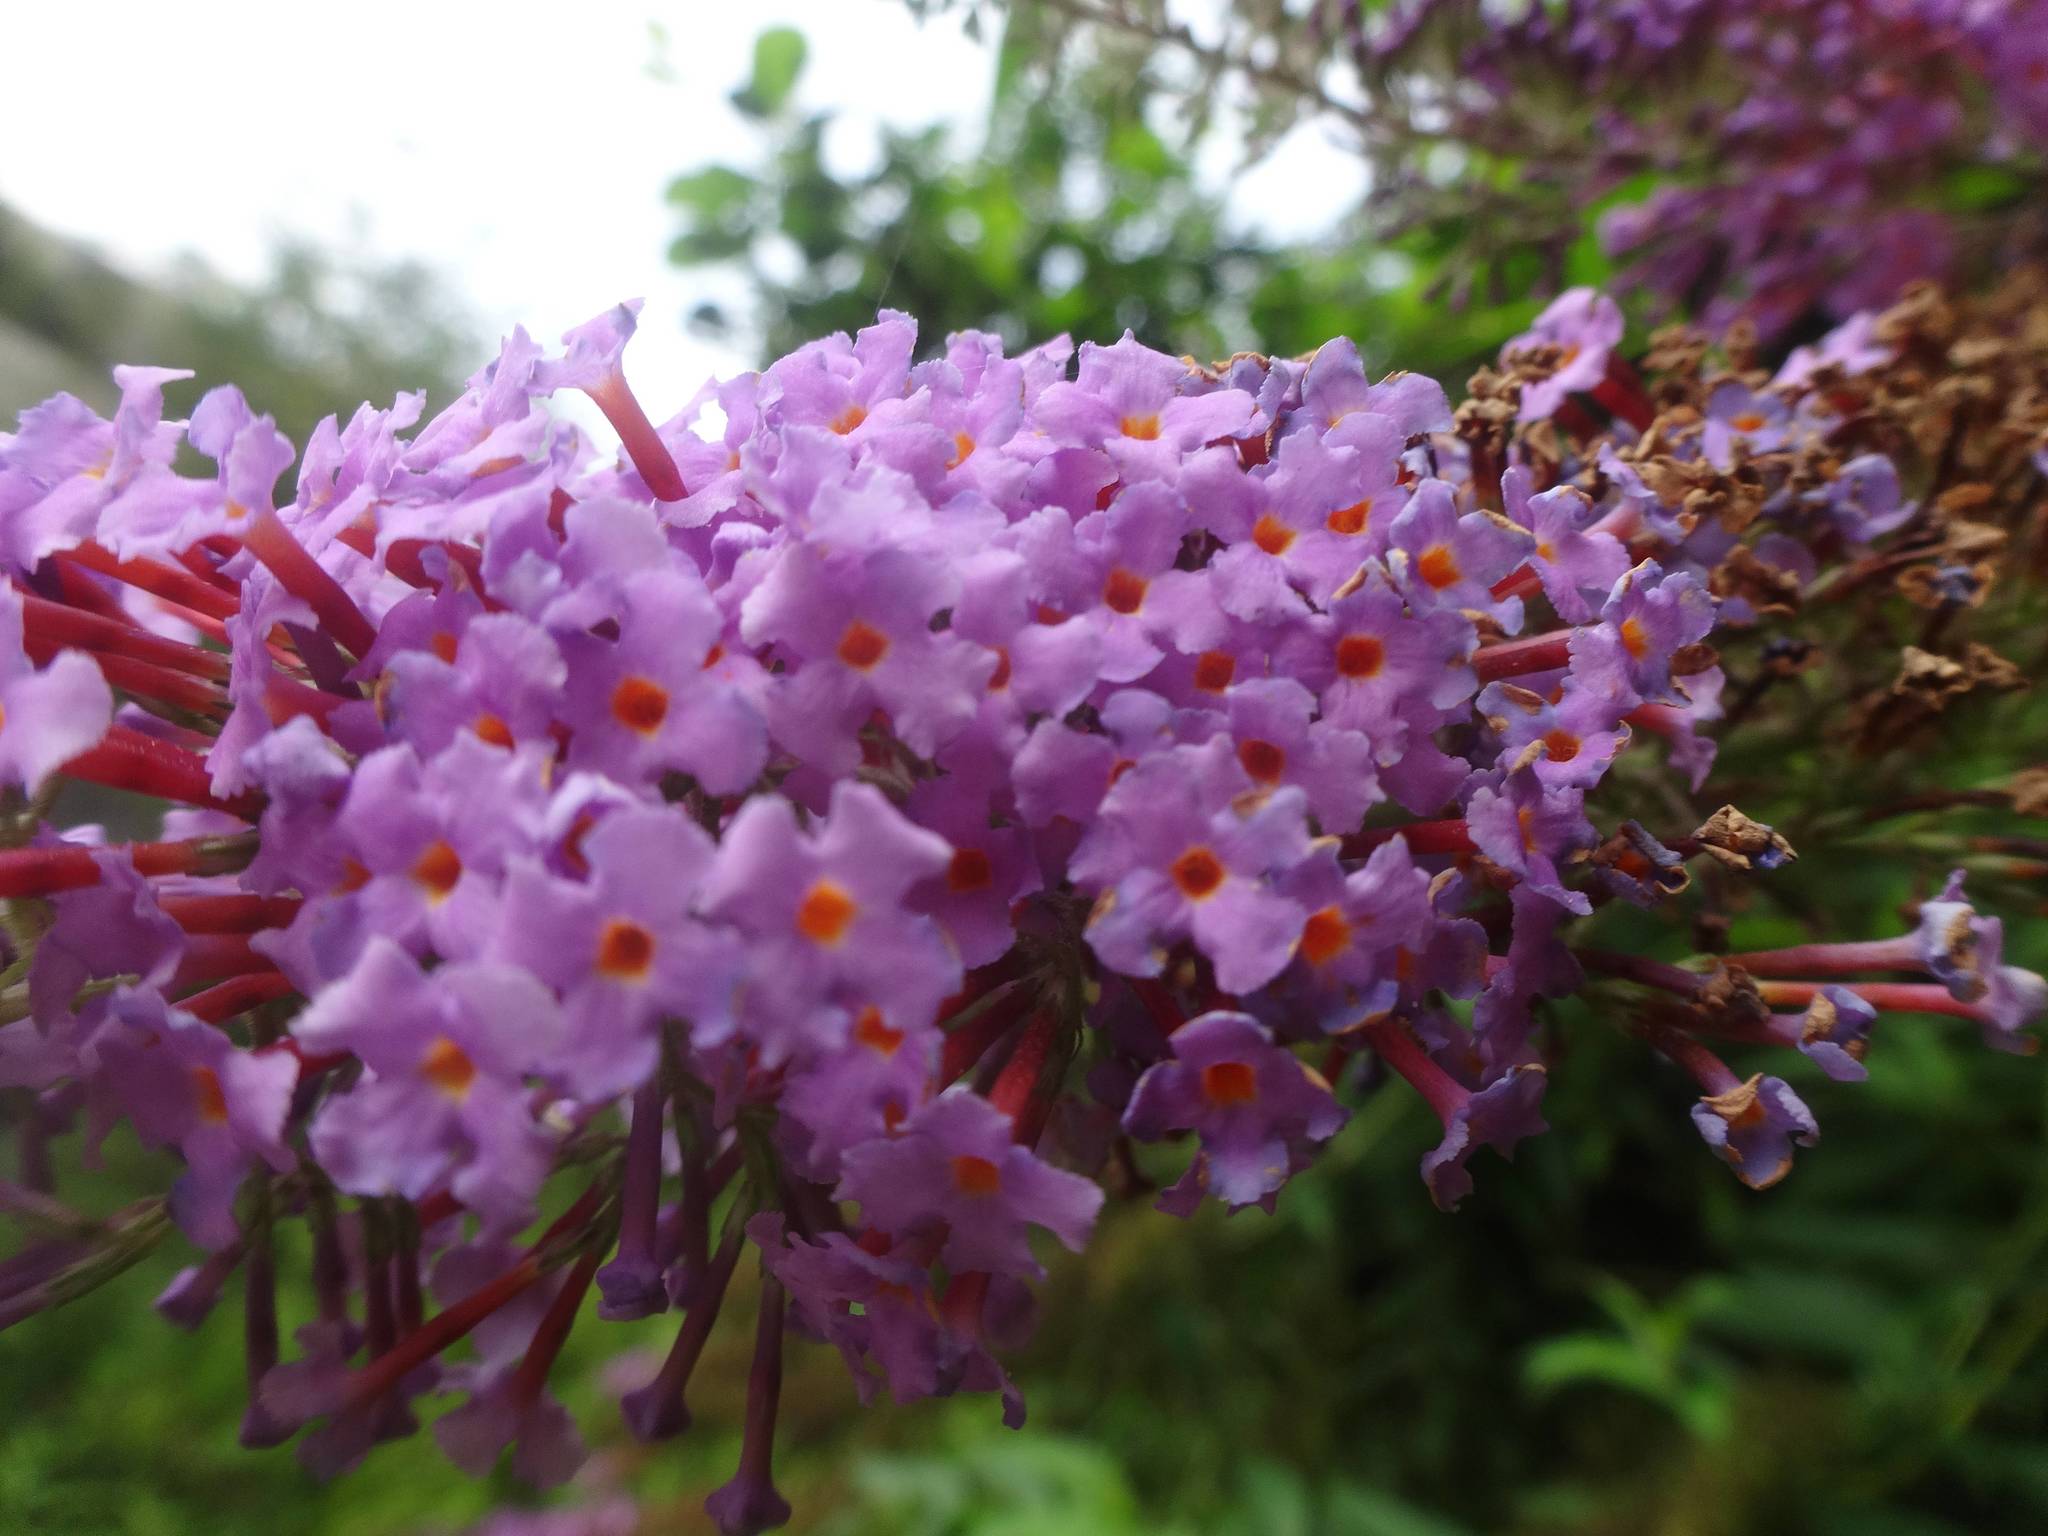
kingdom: Plantae
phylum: Tracheophyta
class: Magnoliopsida
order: Lamiales
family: Scrophulariaceae
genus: Buddleja
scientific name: Buddleja davidii
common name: Butterfly-bush
